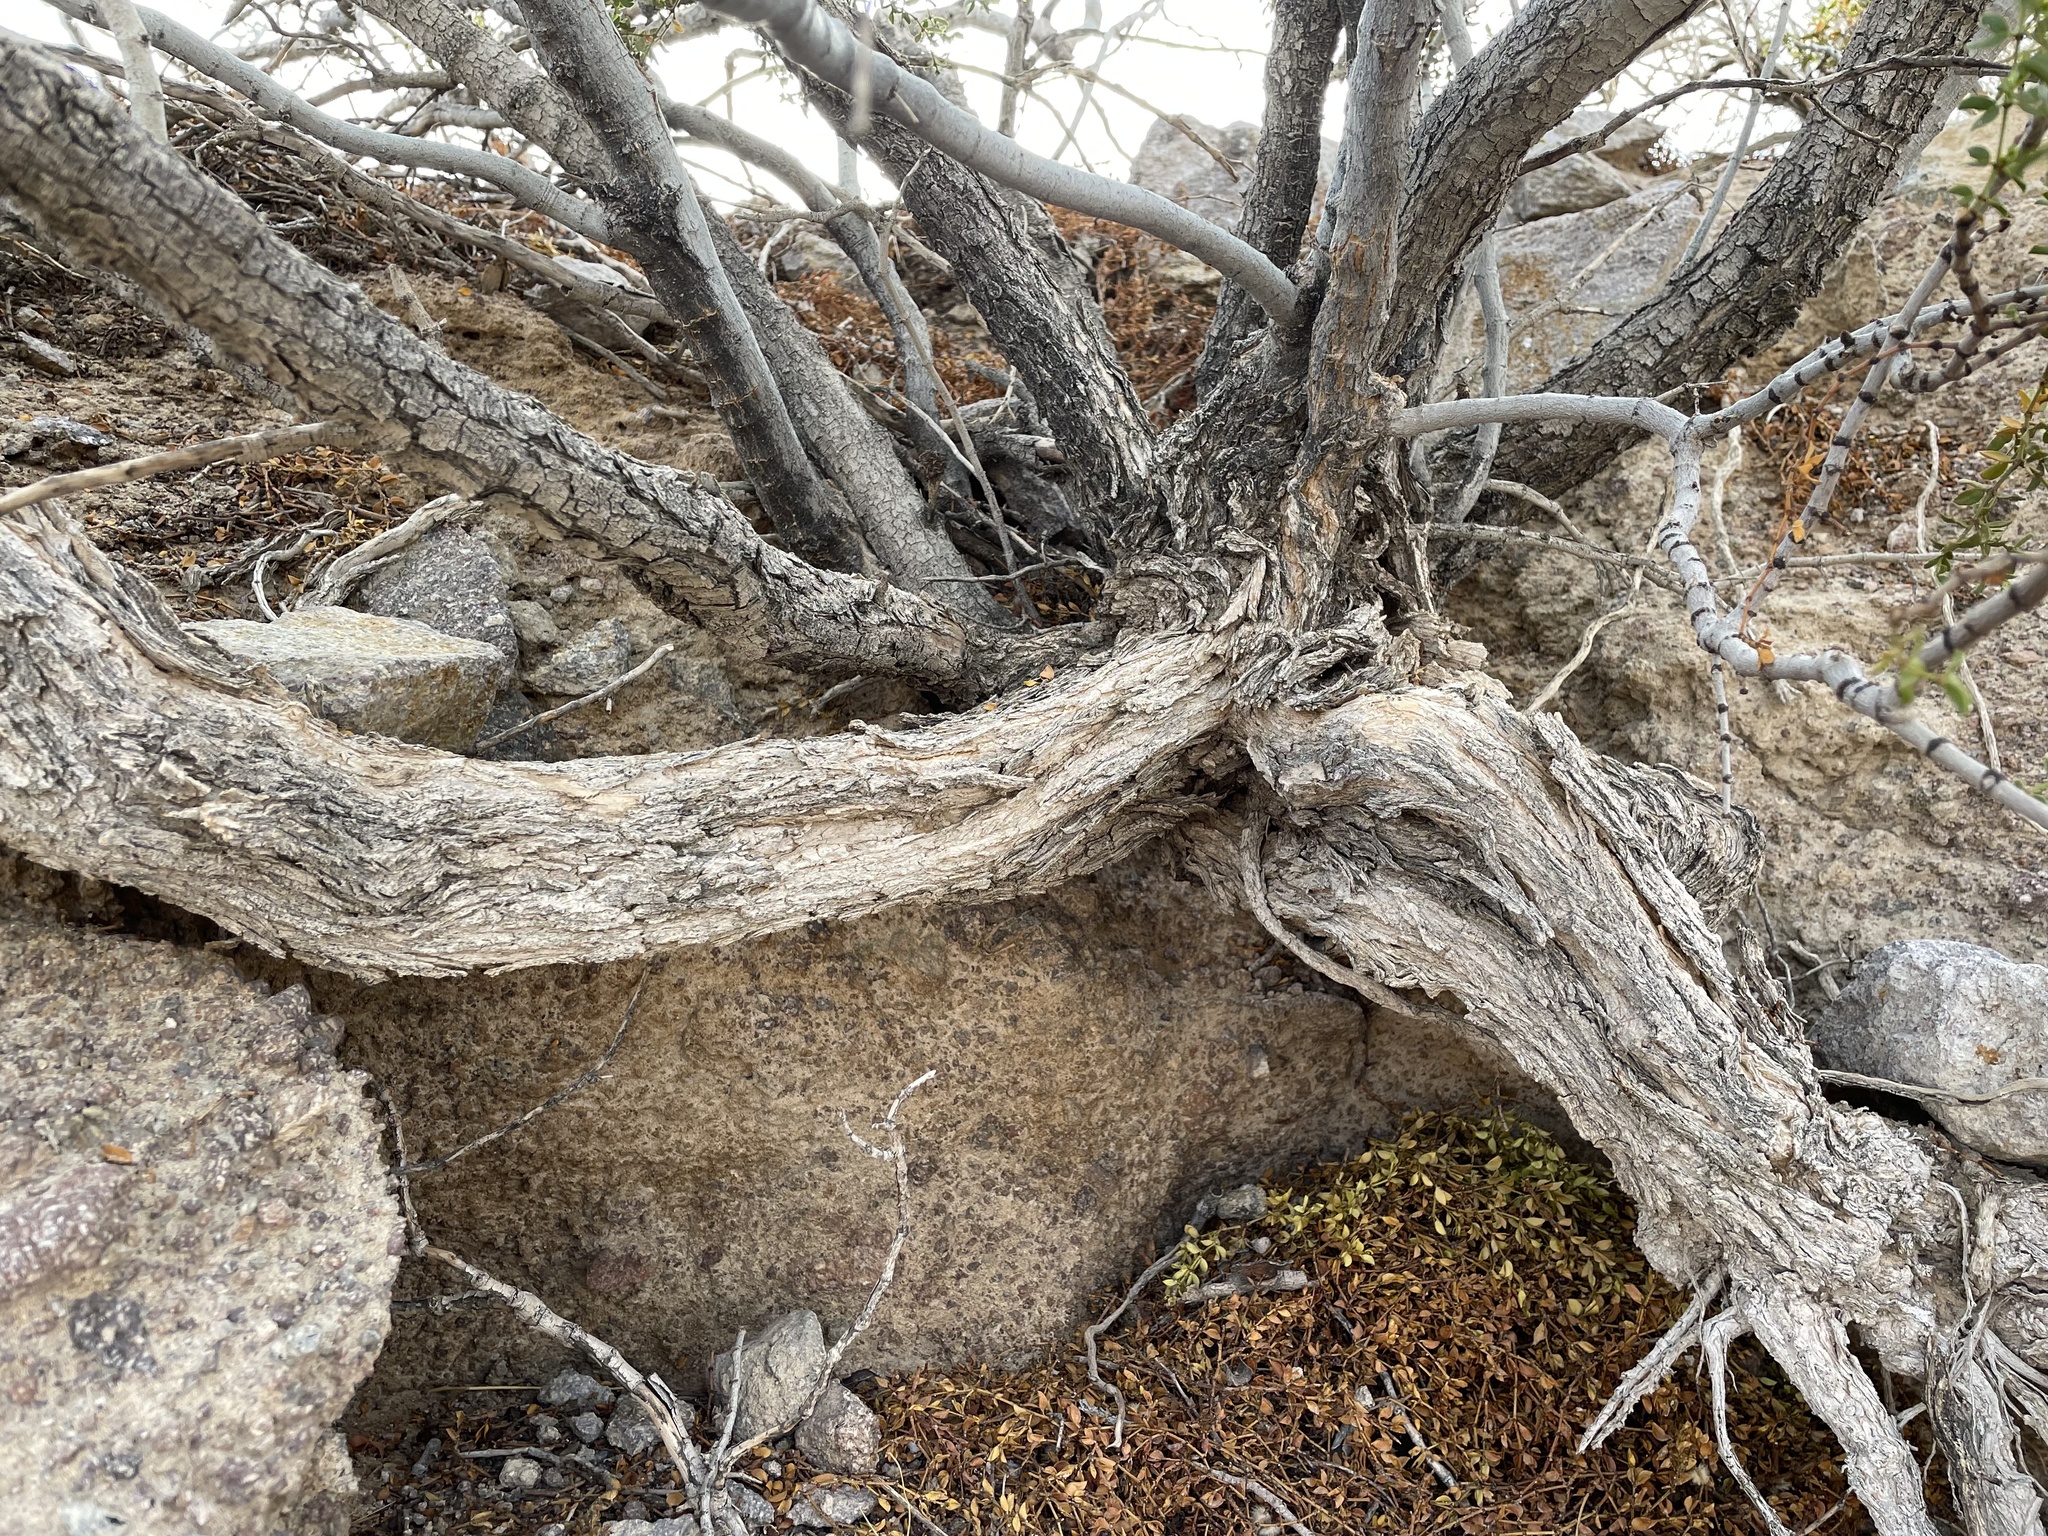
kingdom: Plantae
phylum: Tracheophyta
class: Magnoliopsida
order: Zygophyllales
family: Zygophyllaceae
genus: Larrea
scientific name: Larrea tridentata
